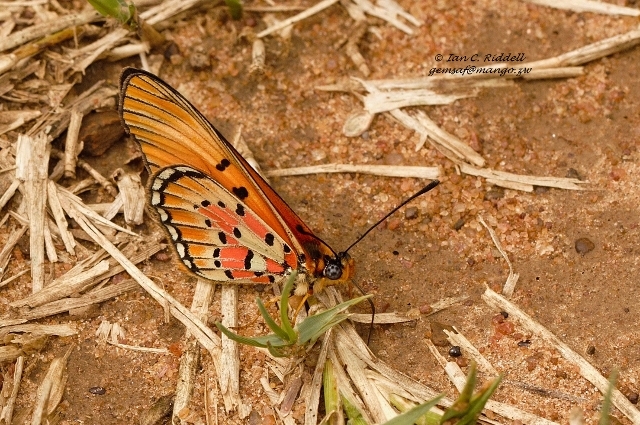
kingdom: Animalia
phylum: Arthropoda
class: Insecta
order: Lepidoptera
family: Nymphalidae
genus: Acraea
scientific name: Acraea
